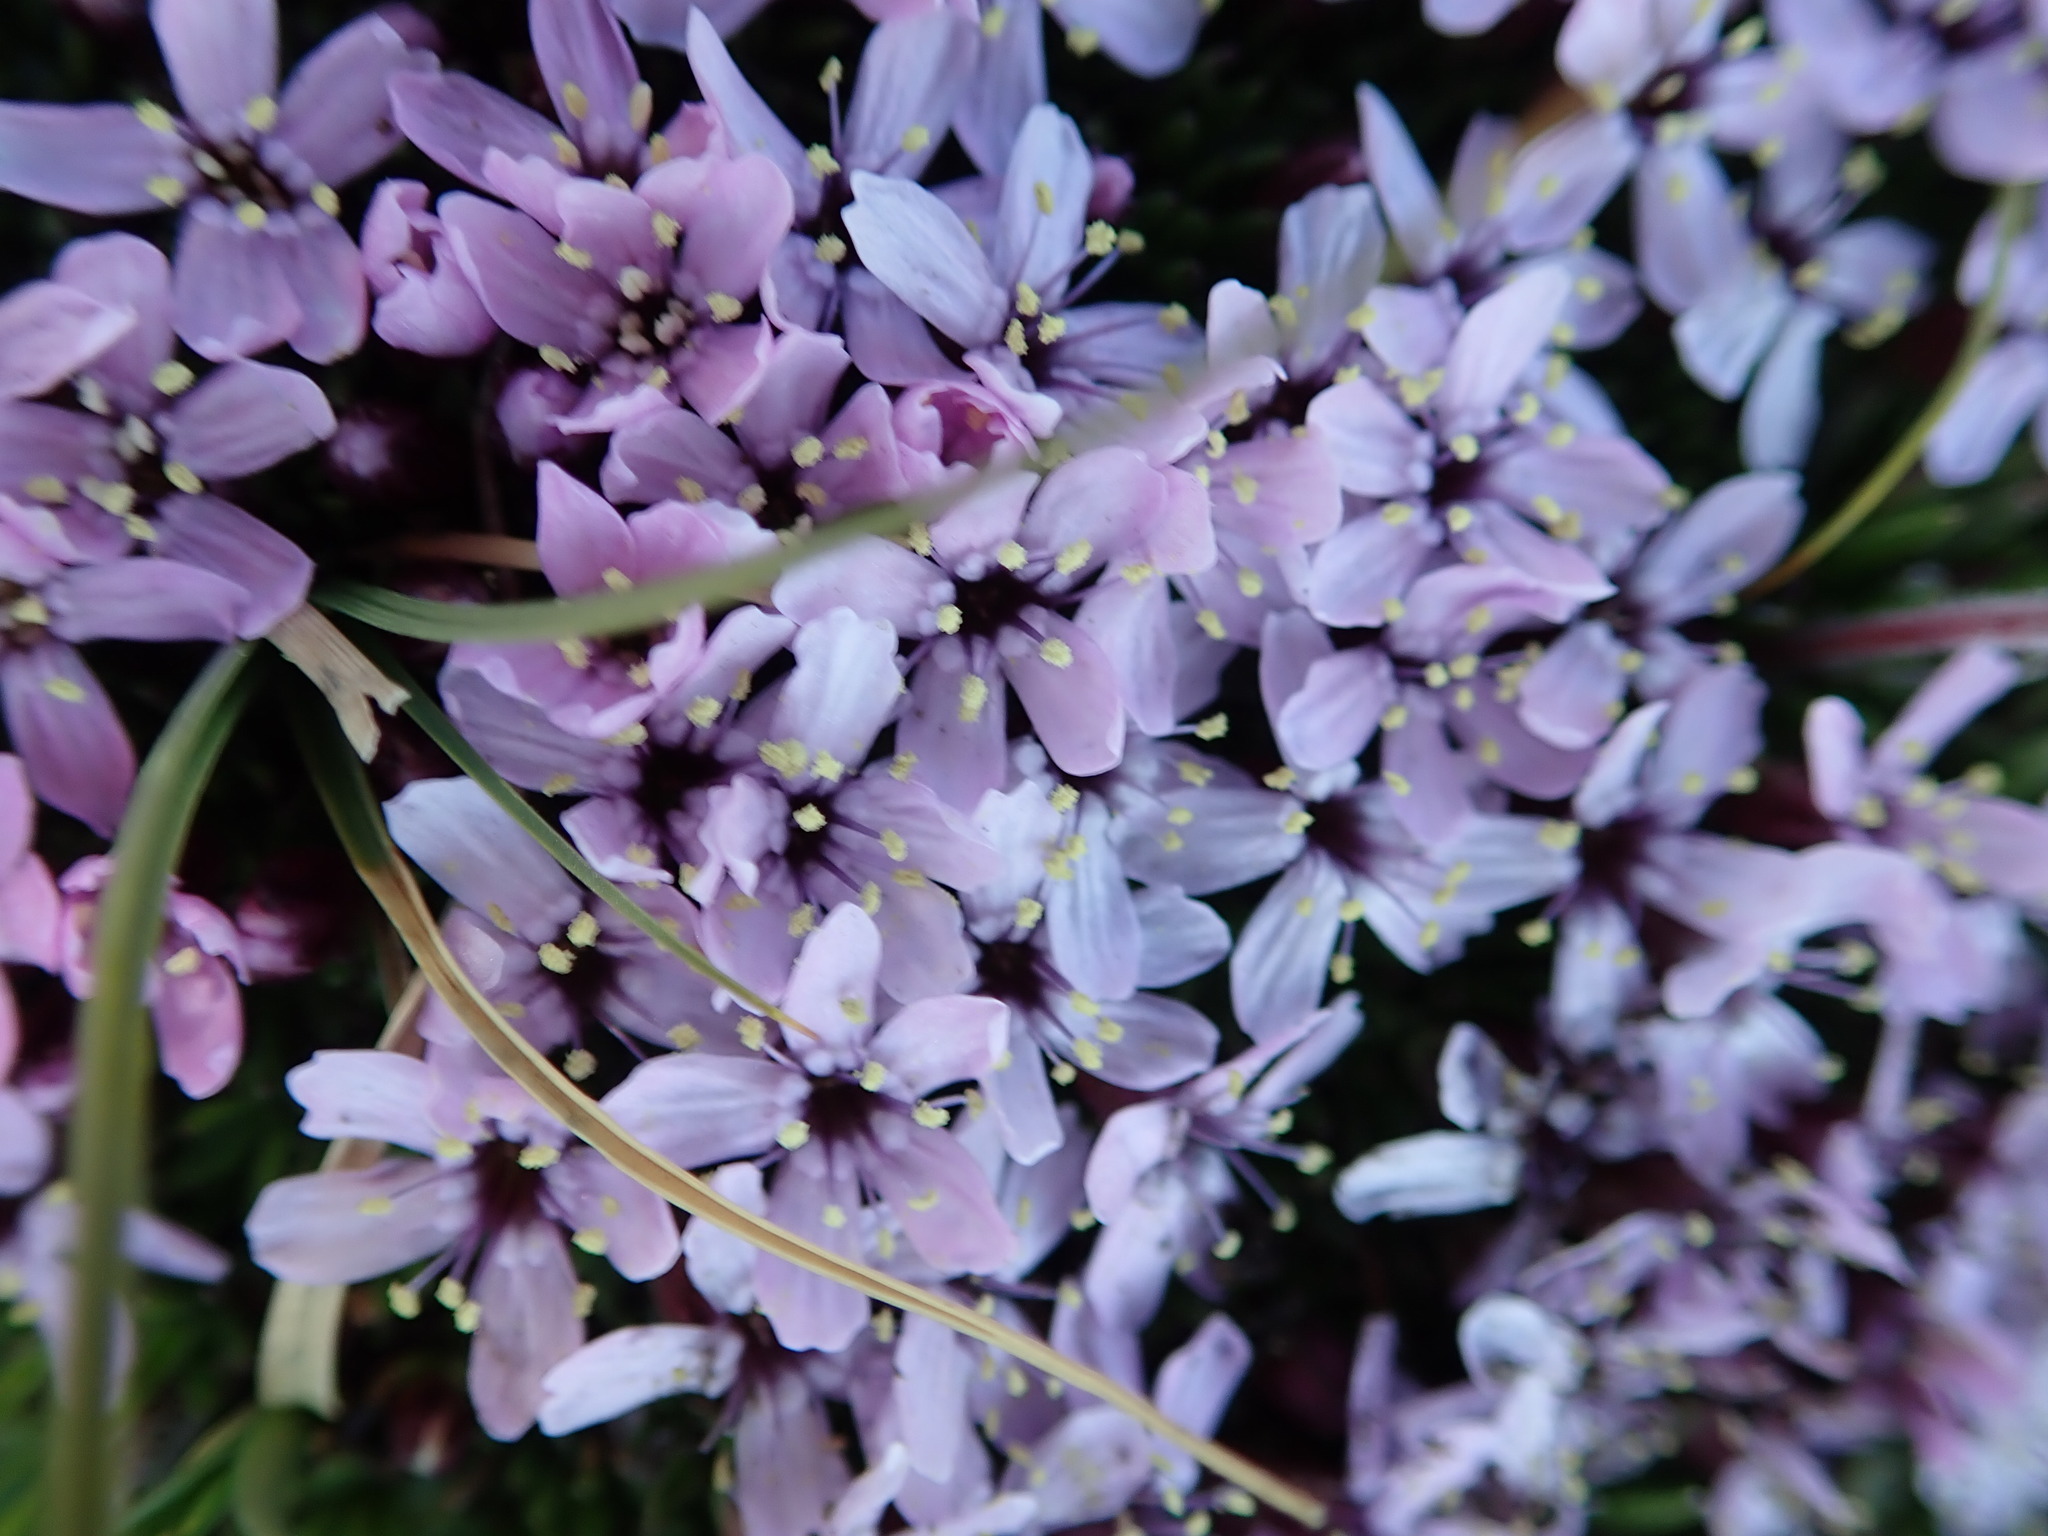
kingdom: Plantae
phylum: Tracheophyta
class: Magnoliopsida
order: Caryophyllales
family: Caryophyllaceae
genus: Silene
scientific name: Silene acaulis
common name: Moss campion
